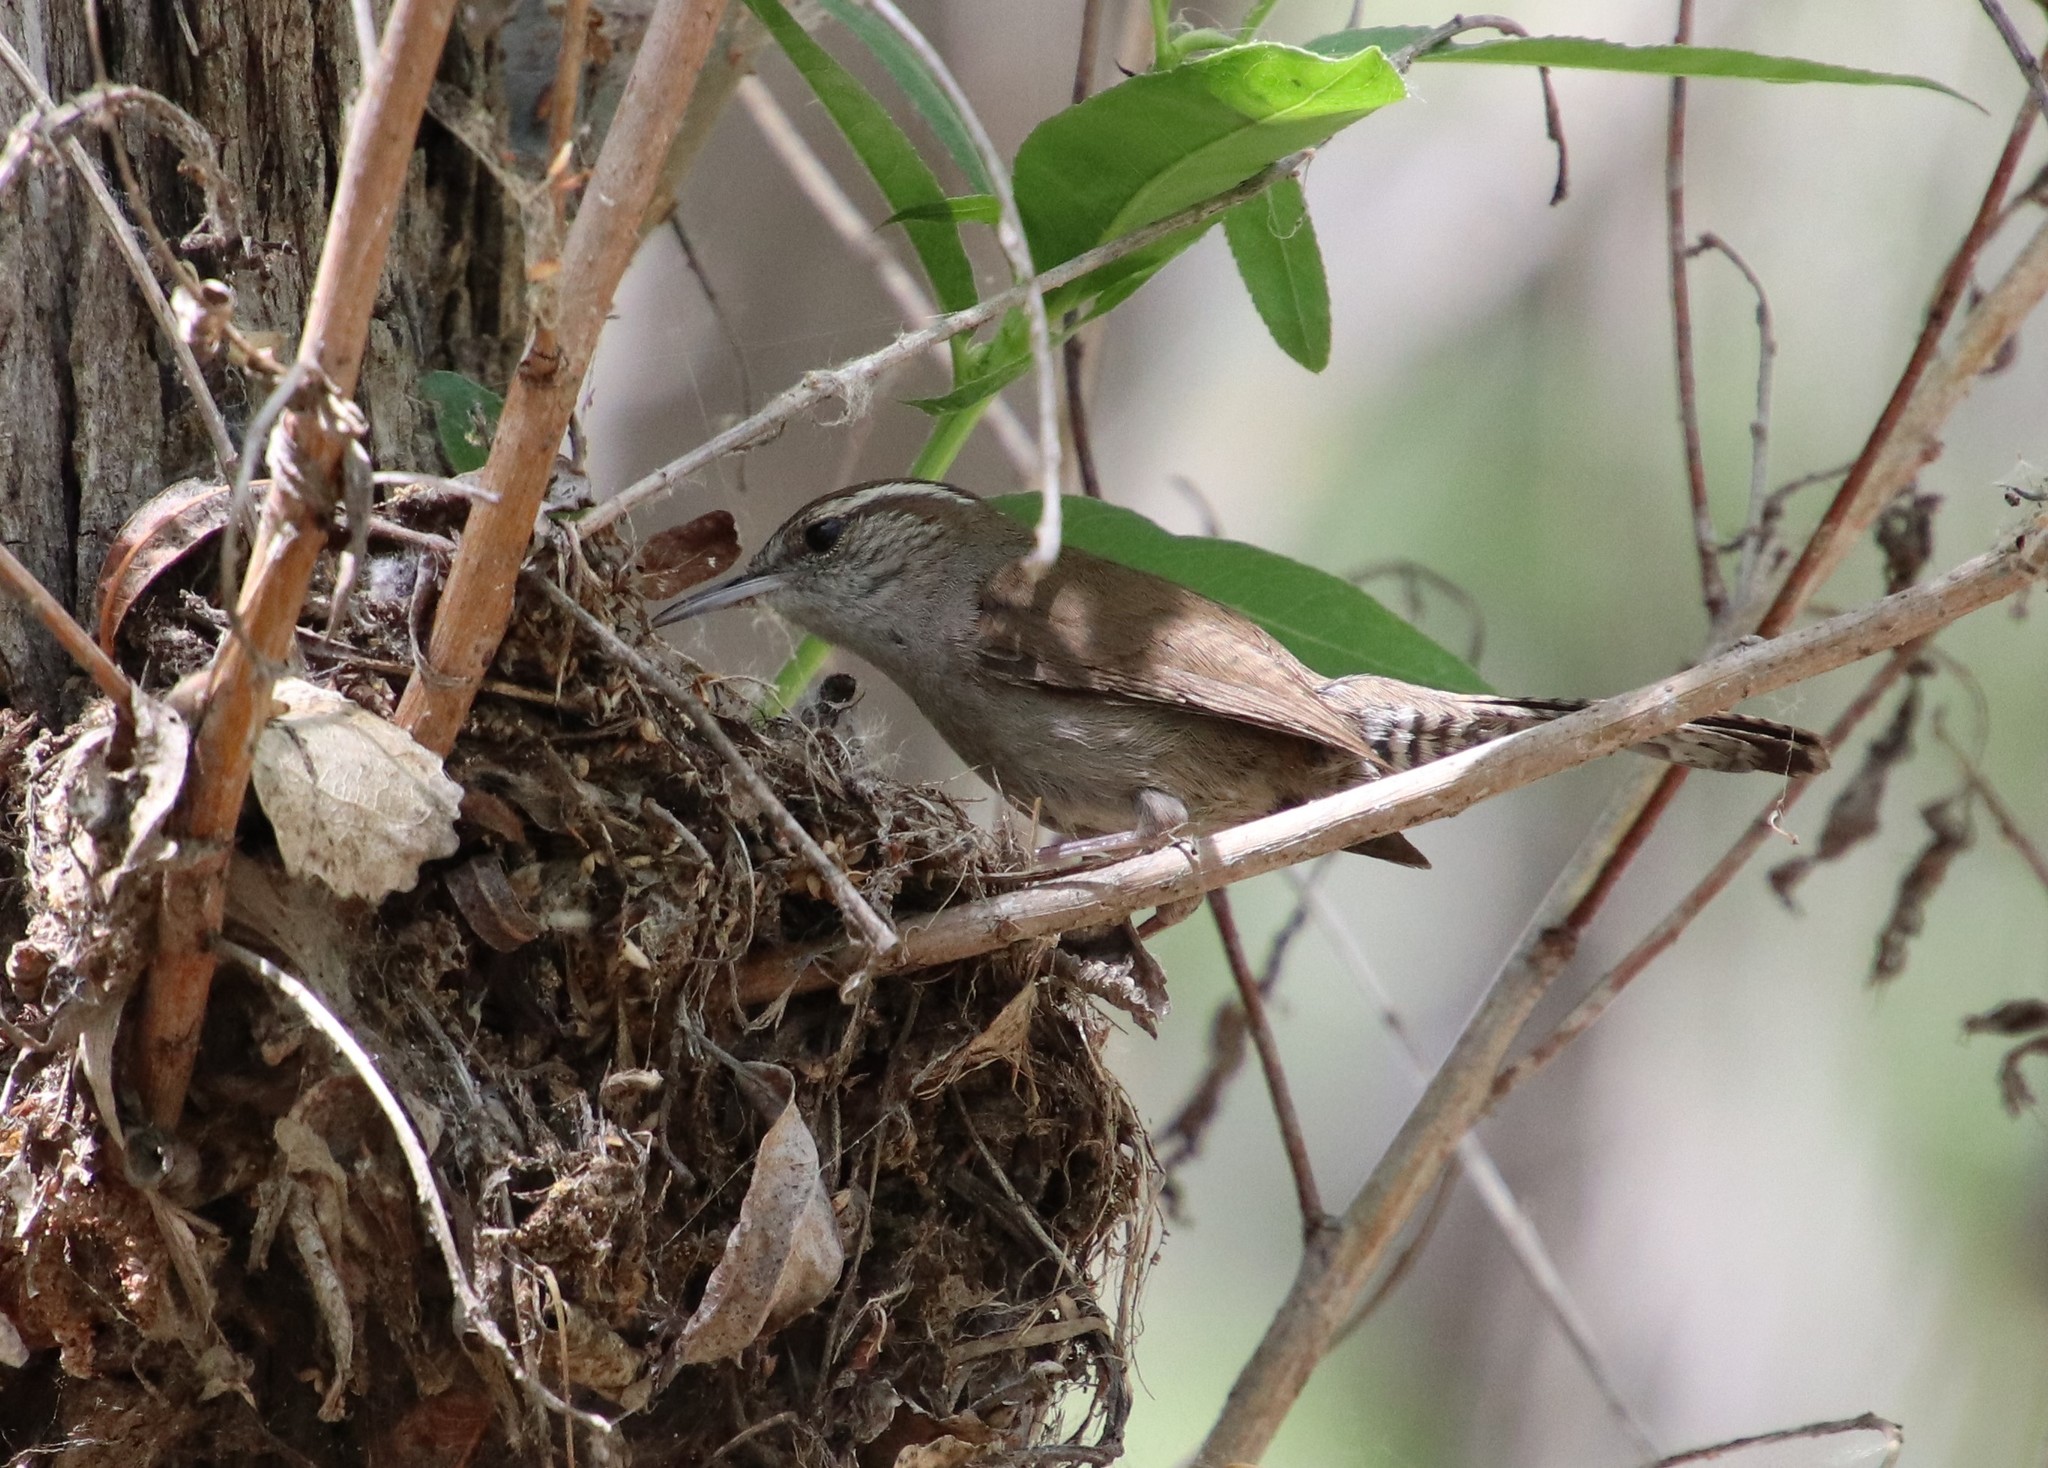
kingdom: Animalia
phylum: Chordata
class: Aves
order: Passeriformes
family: Troglodytidae
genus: Thryomanes
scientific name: Thryomanes bewickii
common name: Bewick's wren
